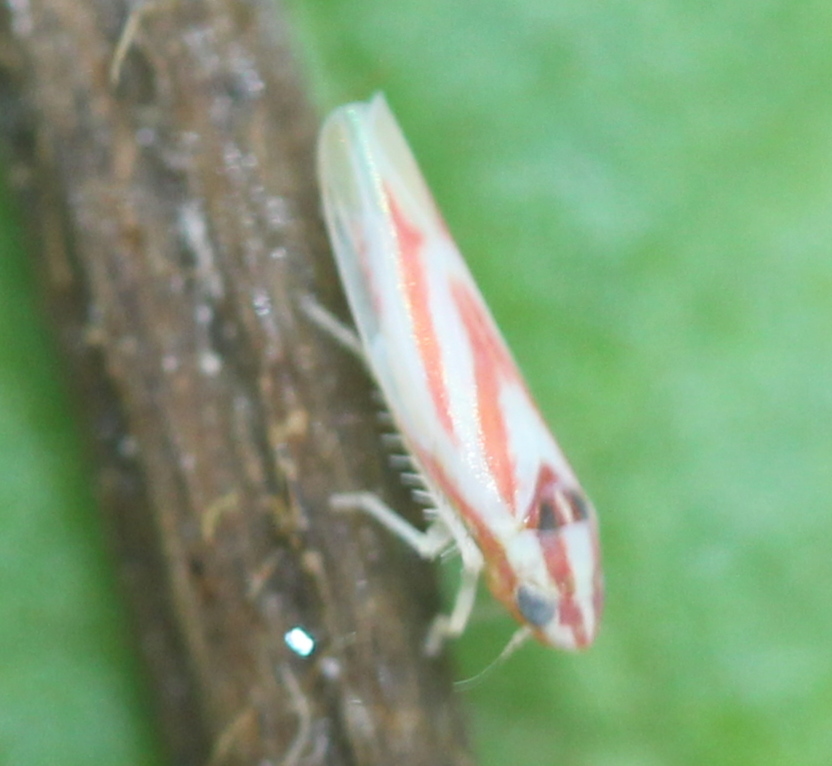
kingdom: Animalia
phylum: Arthropoda
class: Insecta
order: Hemiptera
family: Cicadellidae
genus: Erythridula
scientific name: Erythridula noeva
